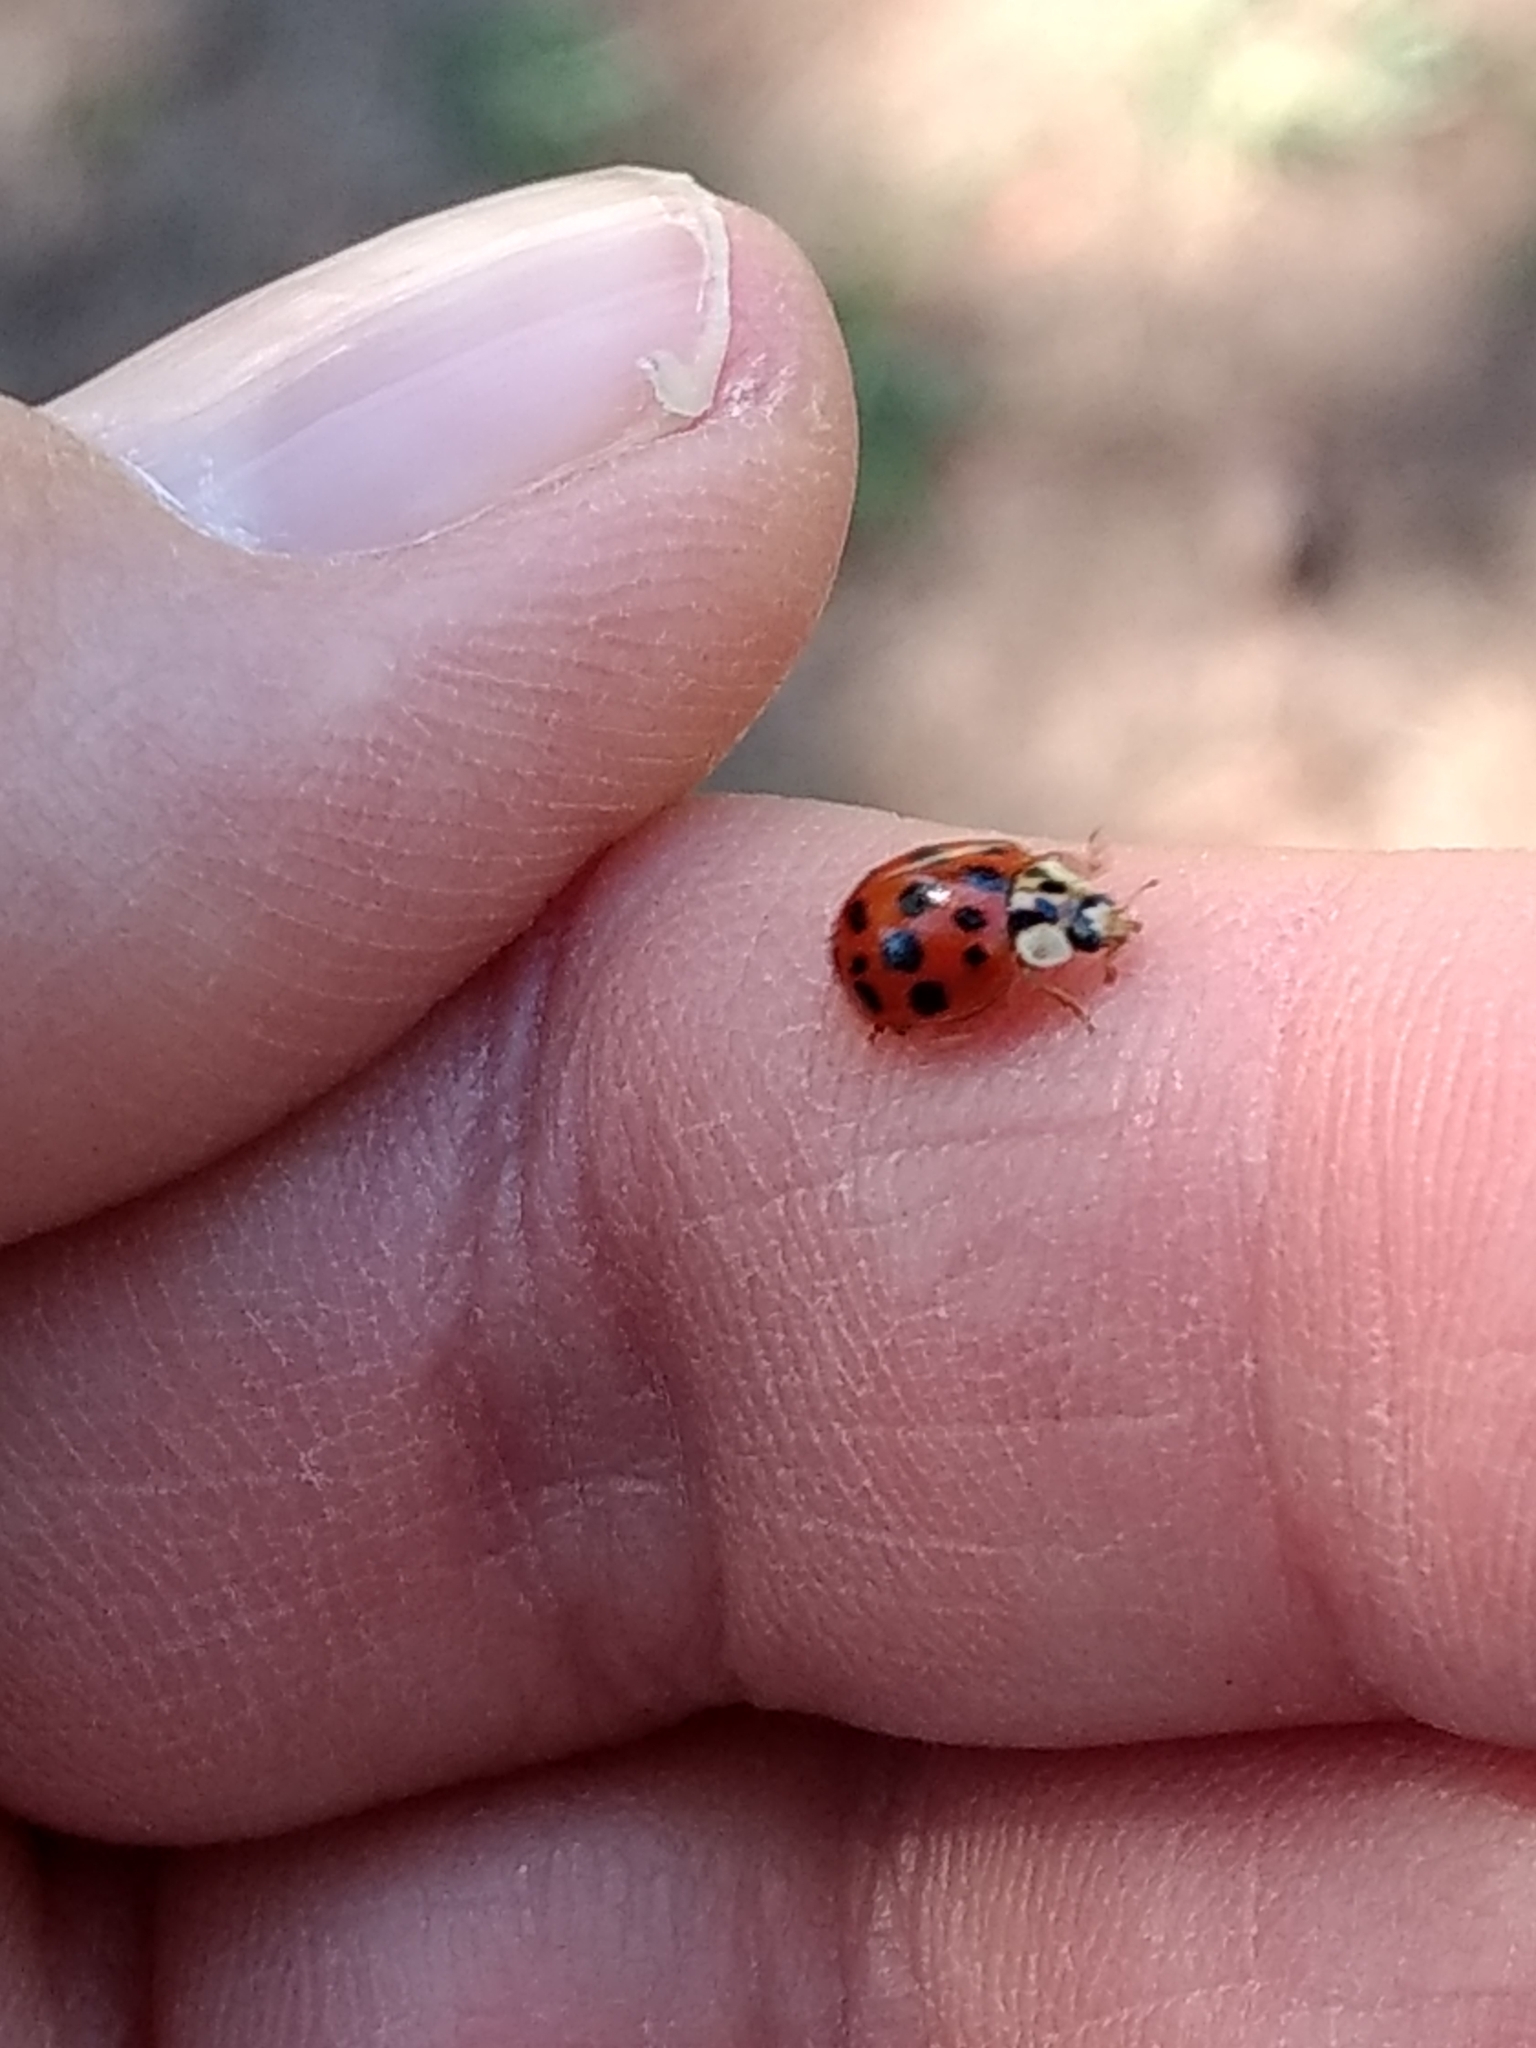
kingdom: Animalia
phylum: Arthropoda
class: Insecta
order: Coleoptera
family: Coccinellidae
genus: Harmonia
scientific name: Harmonia axyridis
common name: Harlequin ladybird
